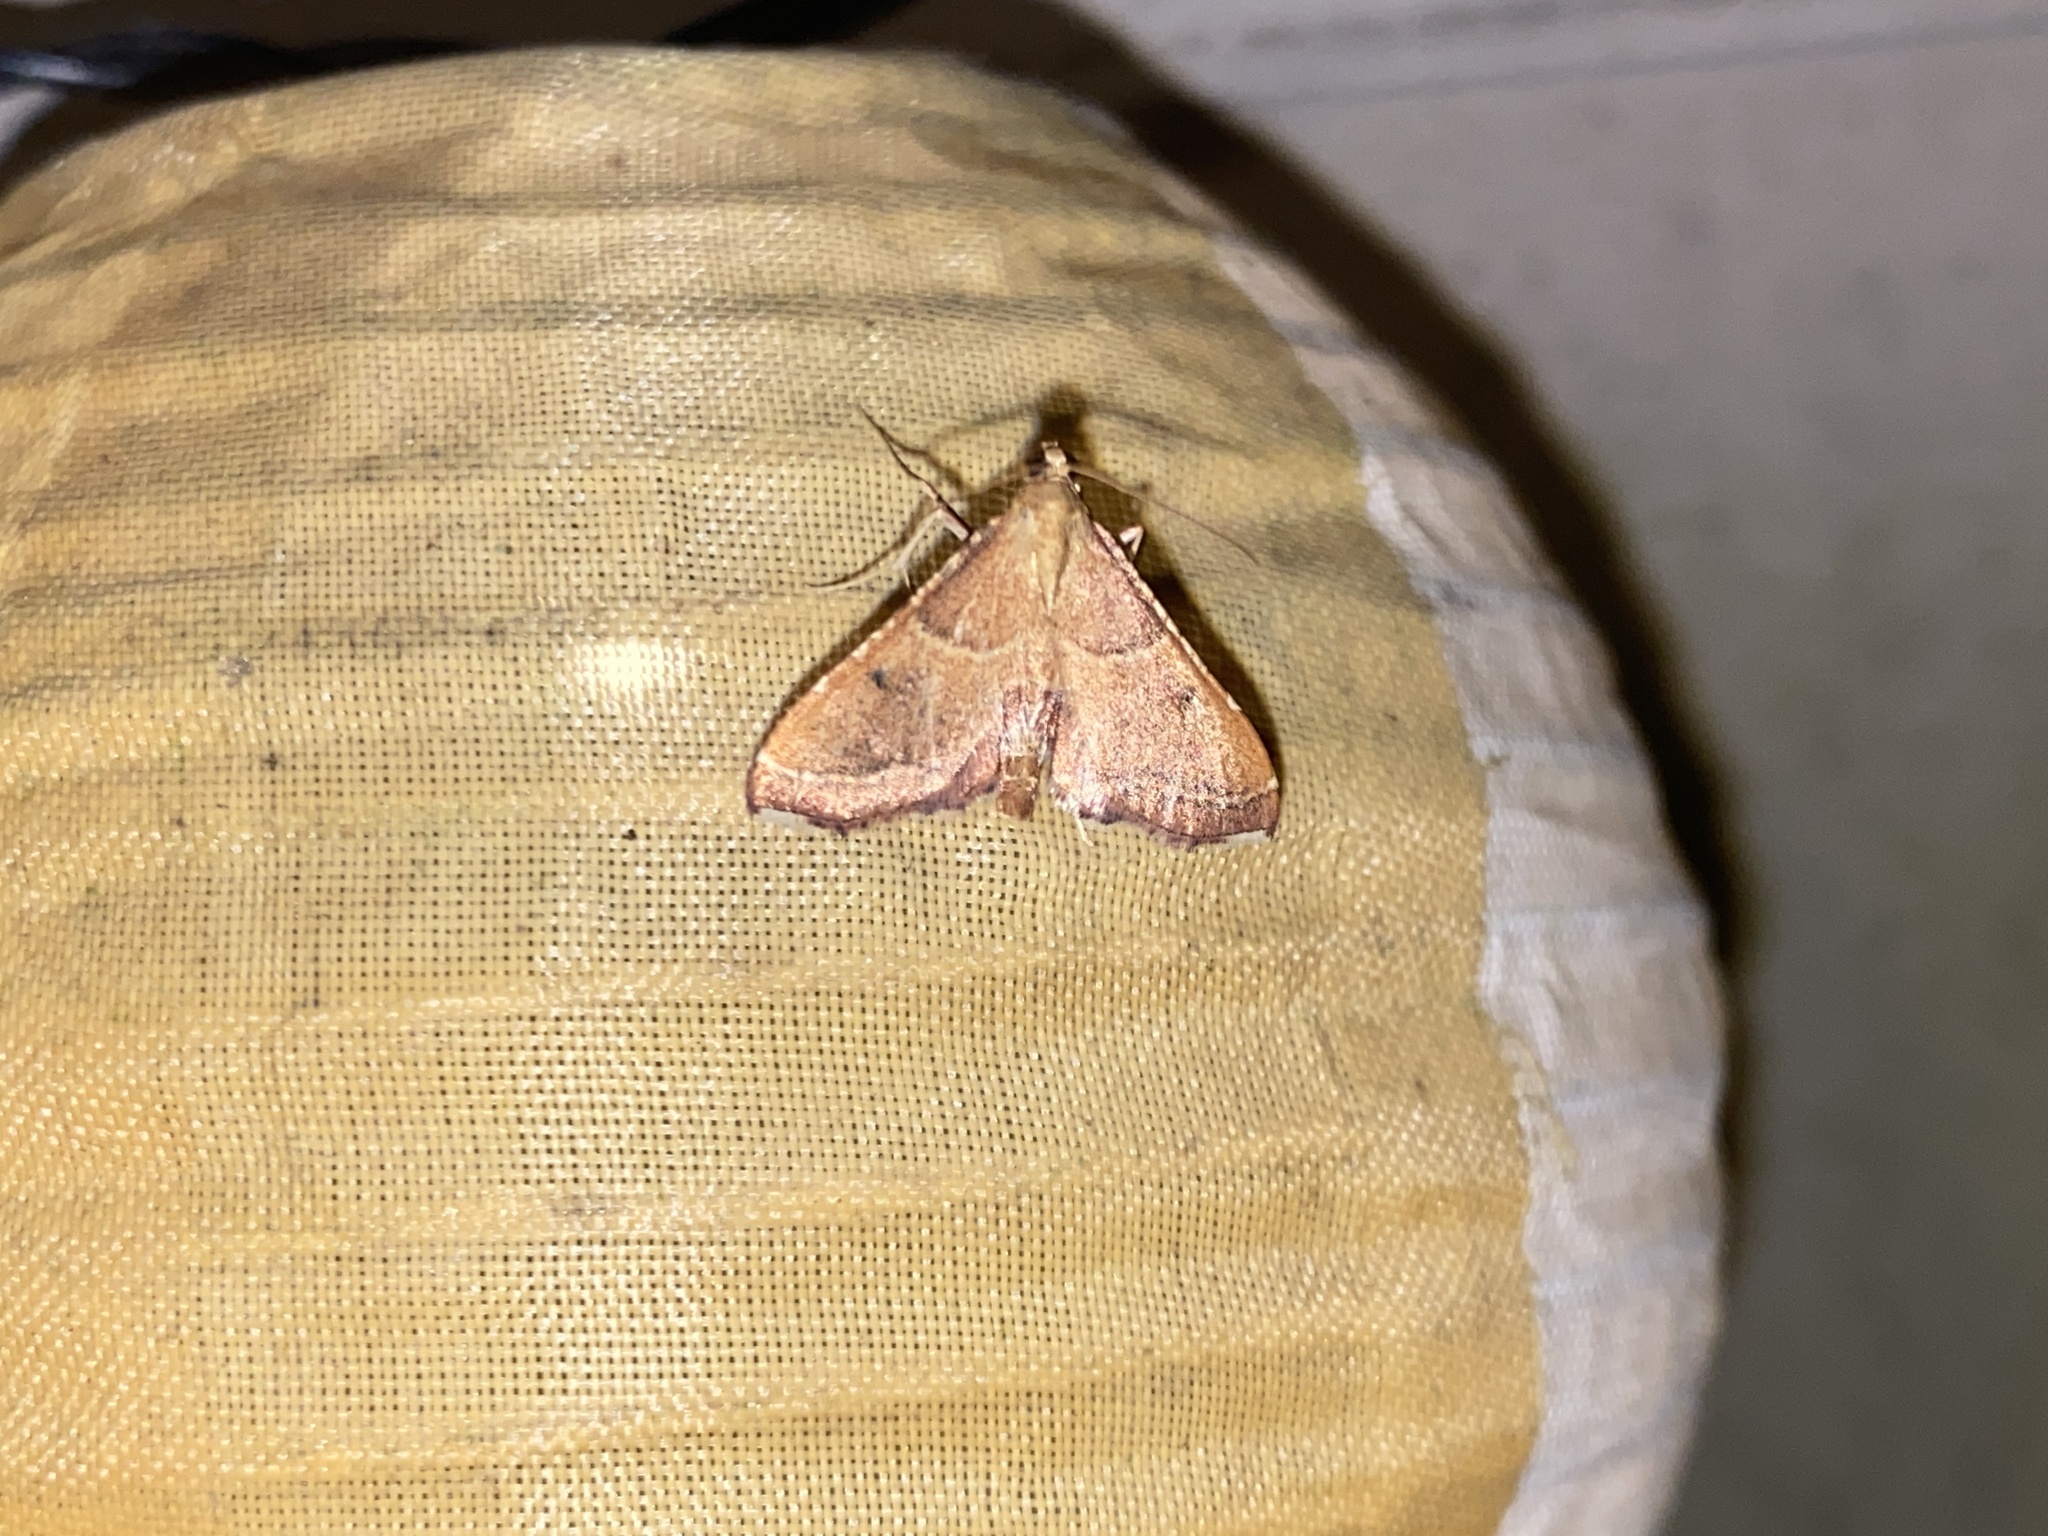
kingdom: Animalia
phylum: Arthropoda
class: Insecta
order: Lepidoptera
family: Pyralidae
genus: Endotricha
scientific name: Endotricha flammealis
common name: Rosy tabby
